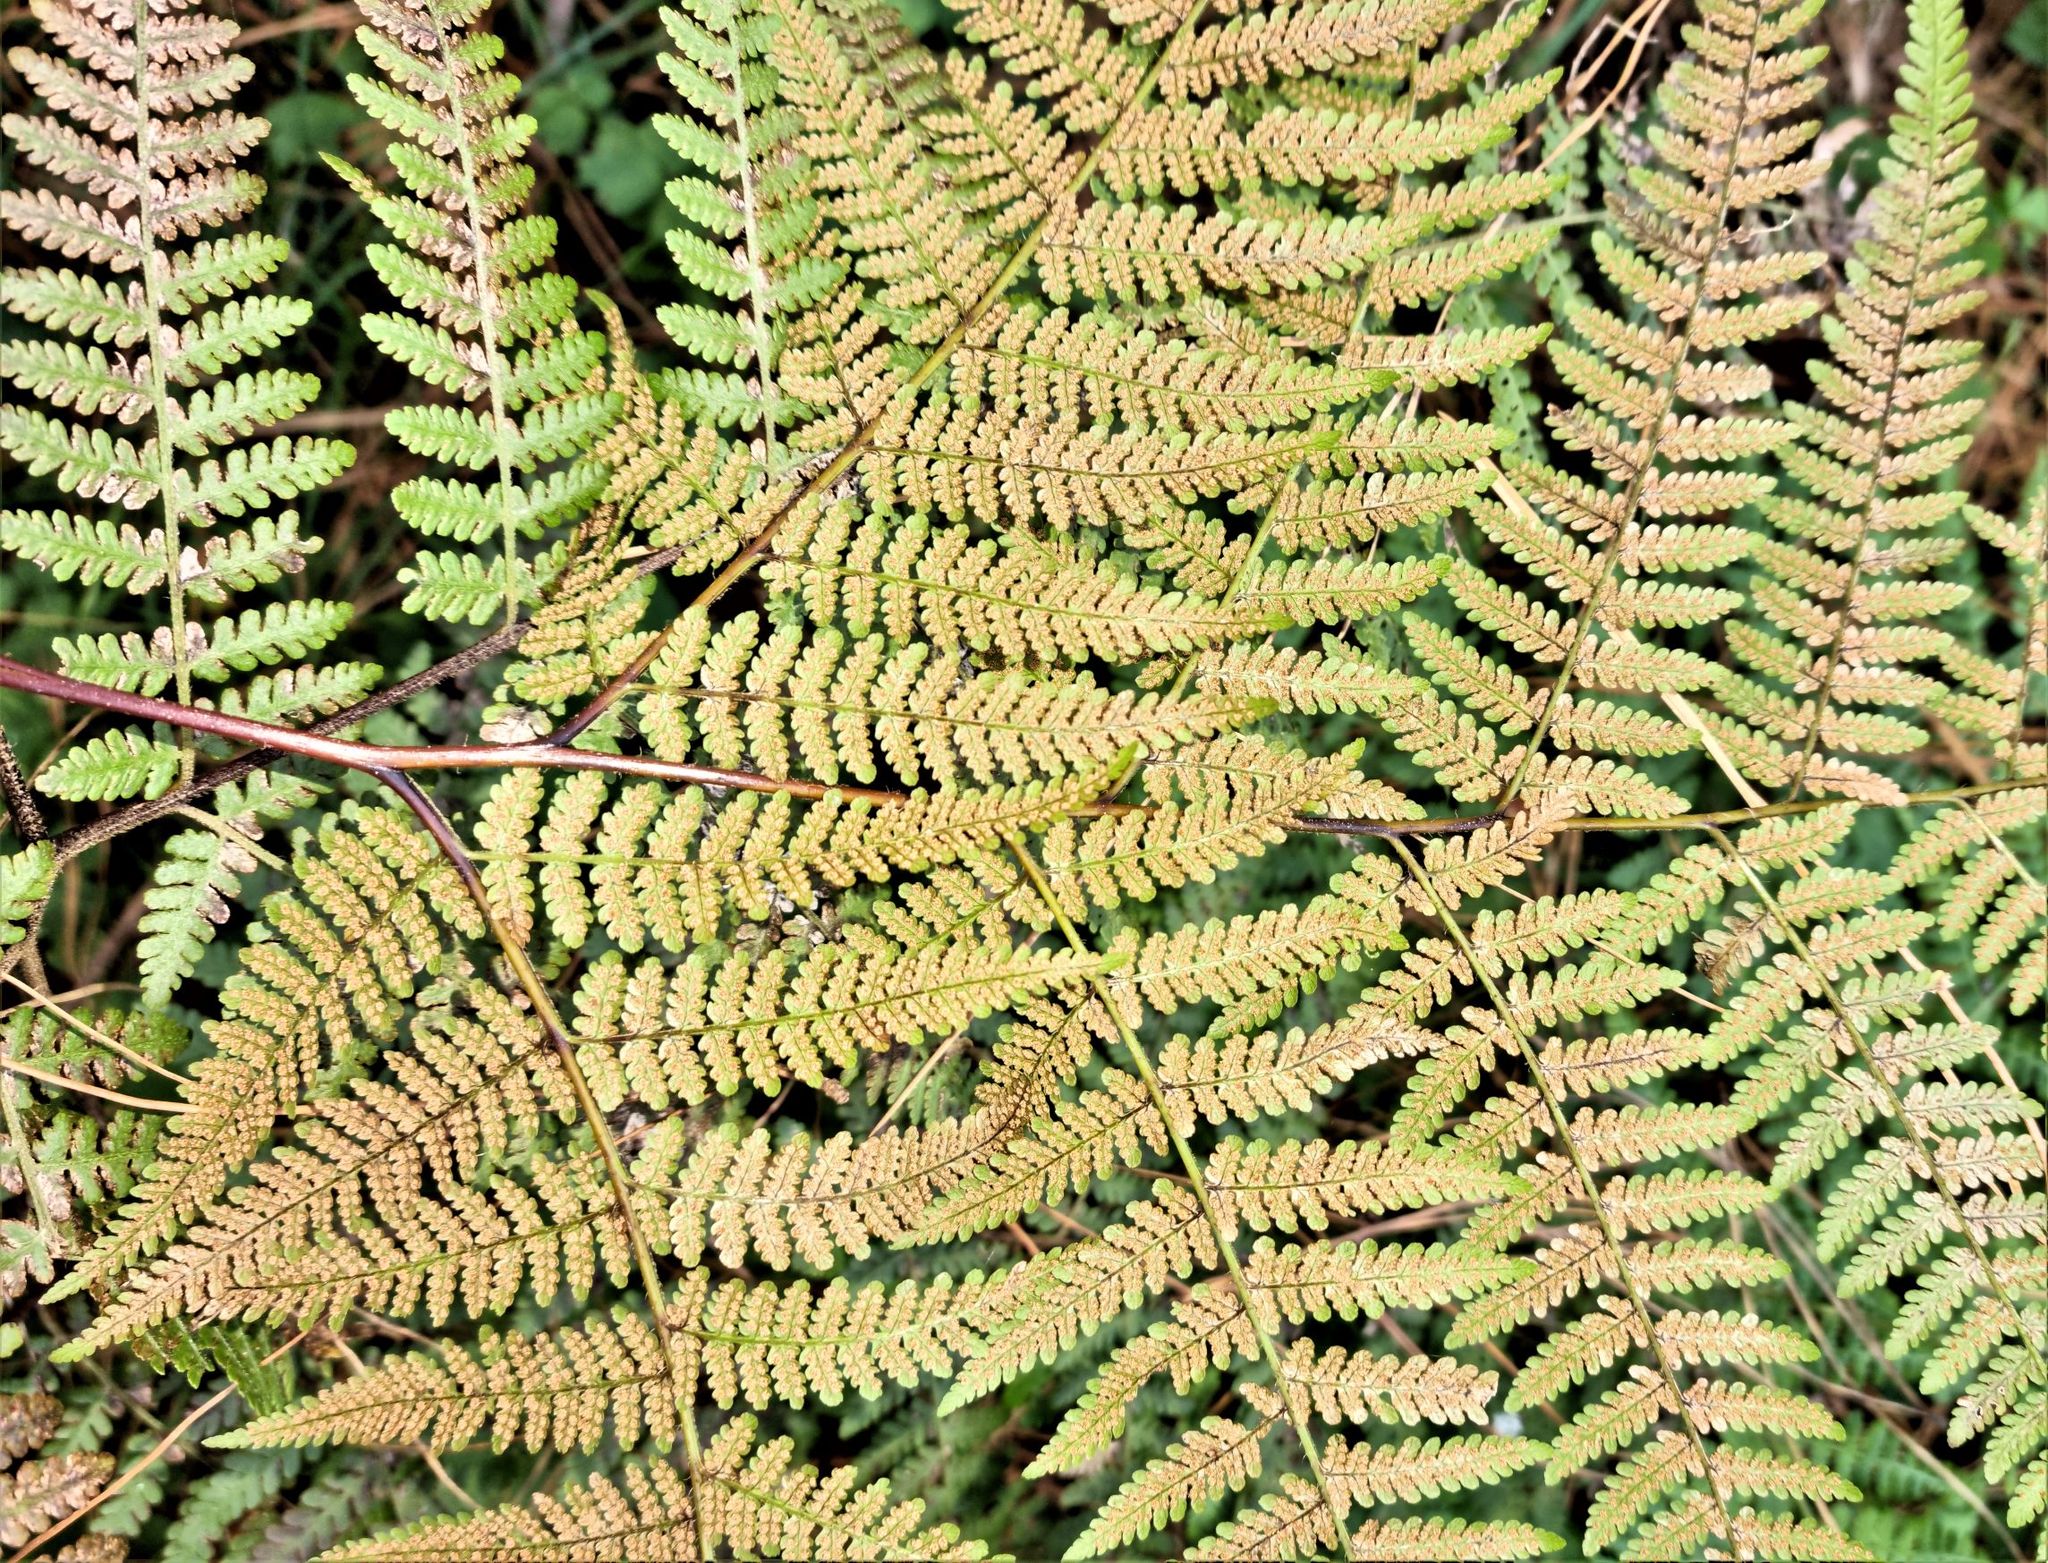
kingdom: Plantae
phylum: Tracheophyta
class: Polypodiopsida
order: Polypodiales
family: Dennstaedtiaceae
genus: Hypolepis
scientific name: Hypolepis ambigua
